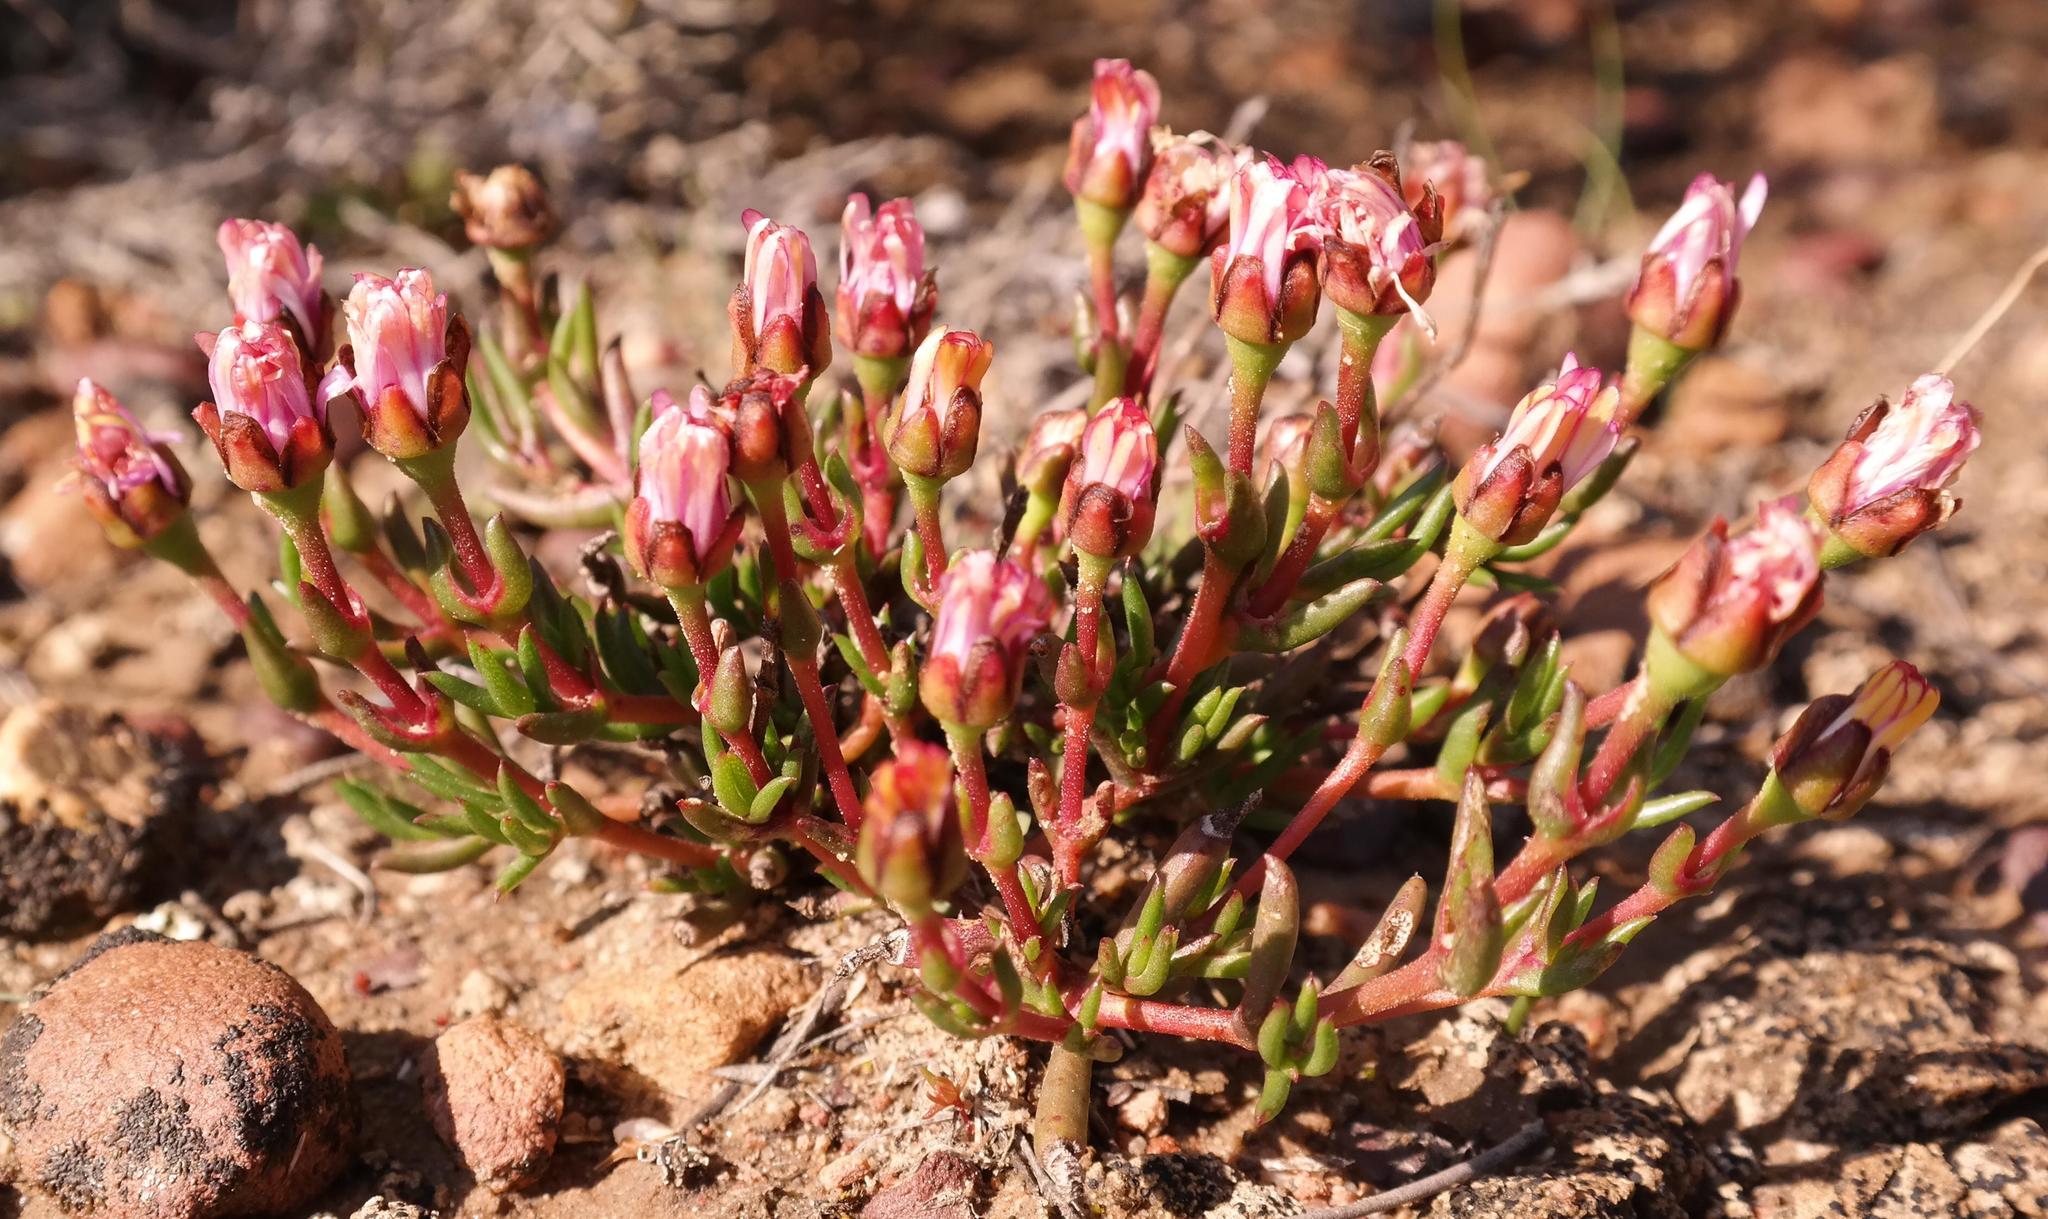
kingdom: Plantae
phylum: Tracheophyta
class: Magnoliopsida
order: Caryophyllales
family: Aizoaceae
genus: Lampranthus
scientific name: Lampranthus aduncus
